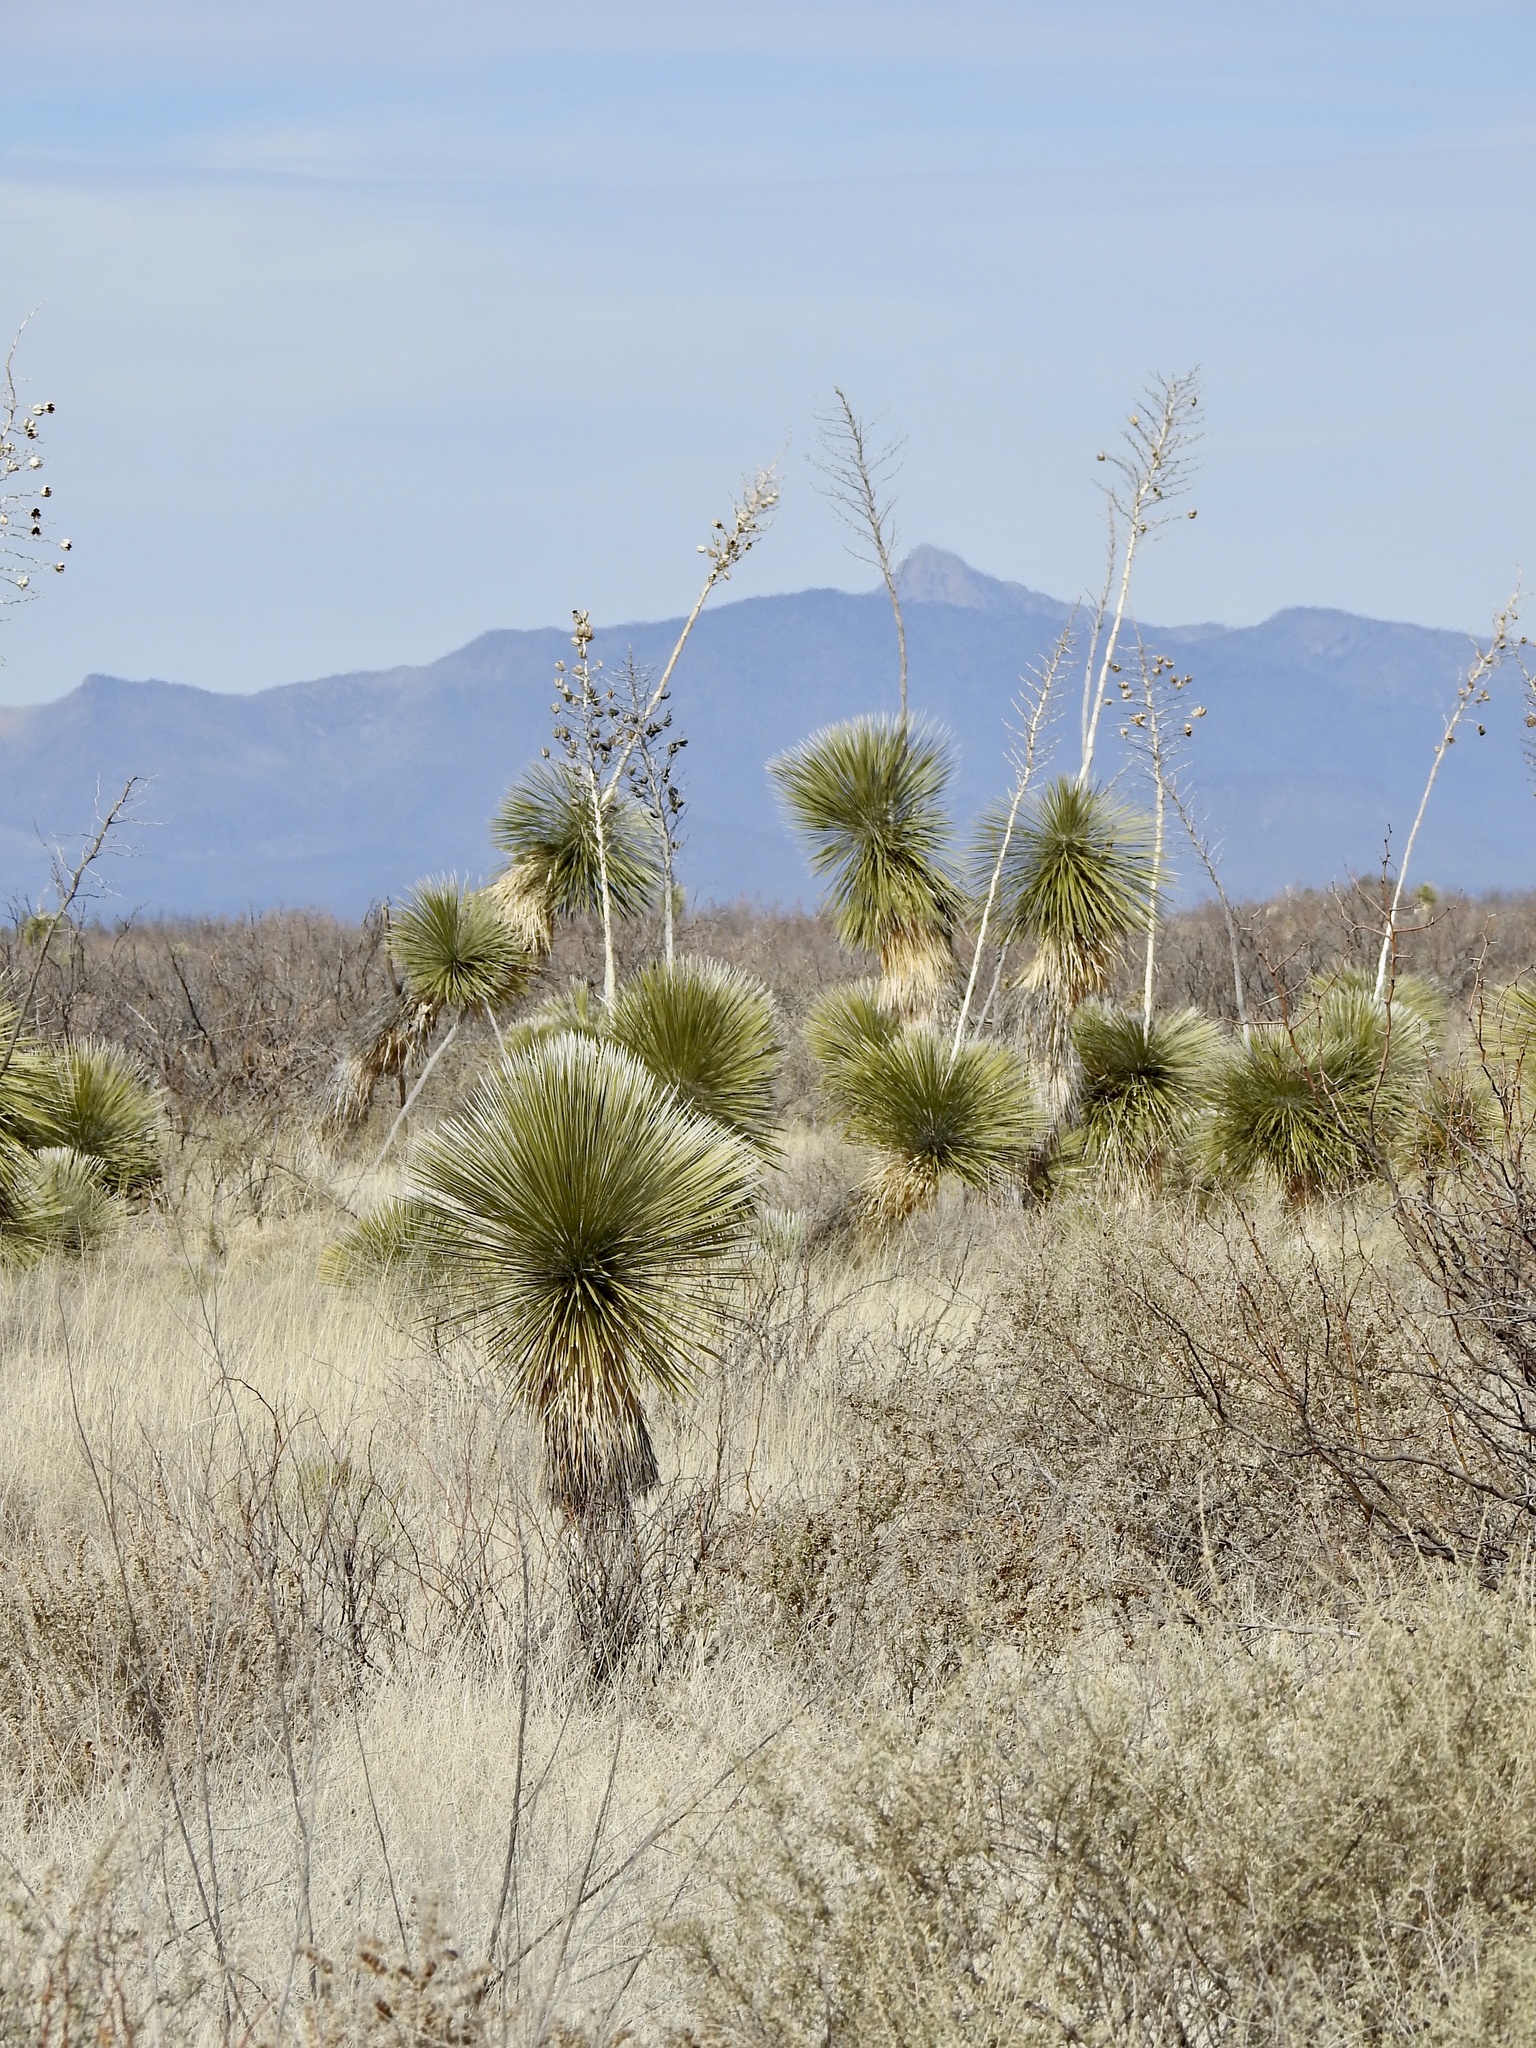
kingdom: Plantae
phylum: Tracheophyta
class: Liliopsida
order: Asparagales
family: Asparagaceae
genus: Yucca
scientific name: Yucca elata
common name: Palmella
